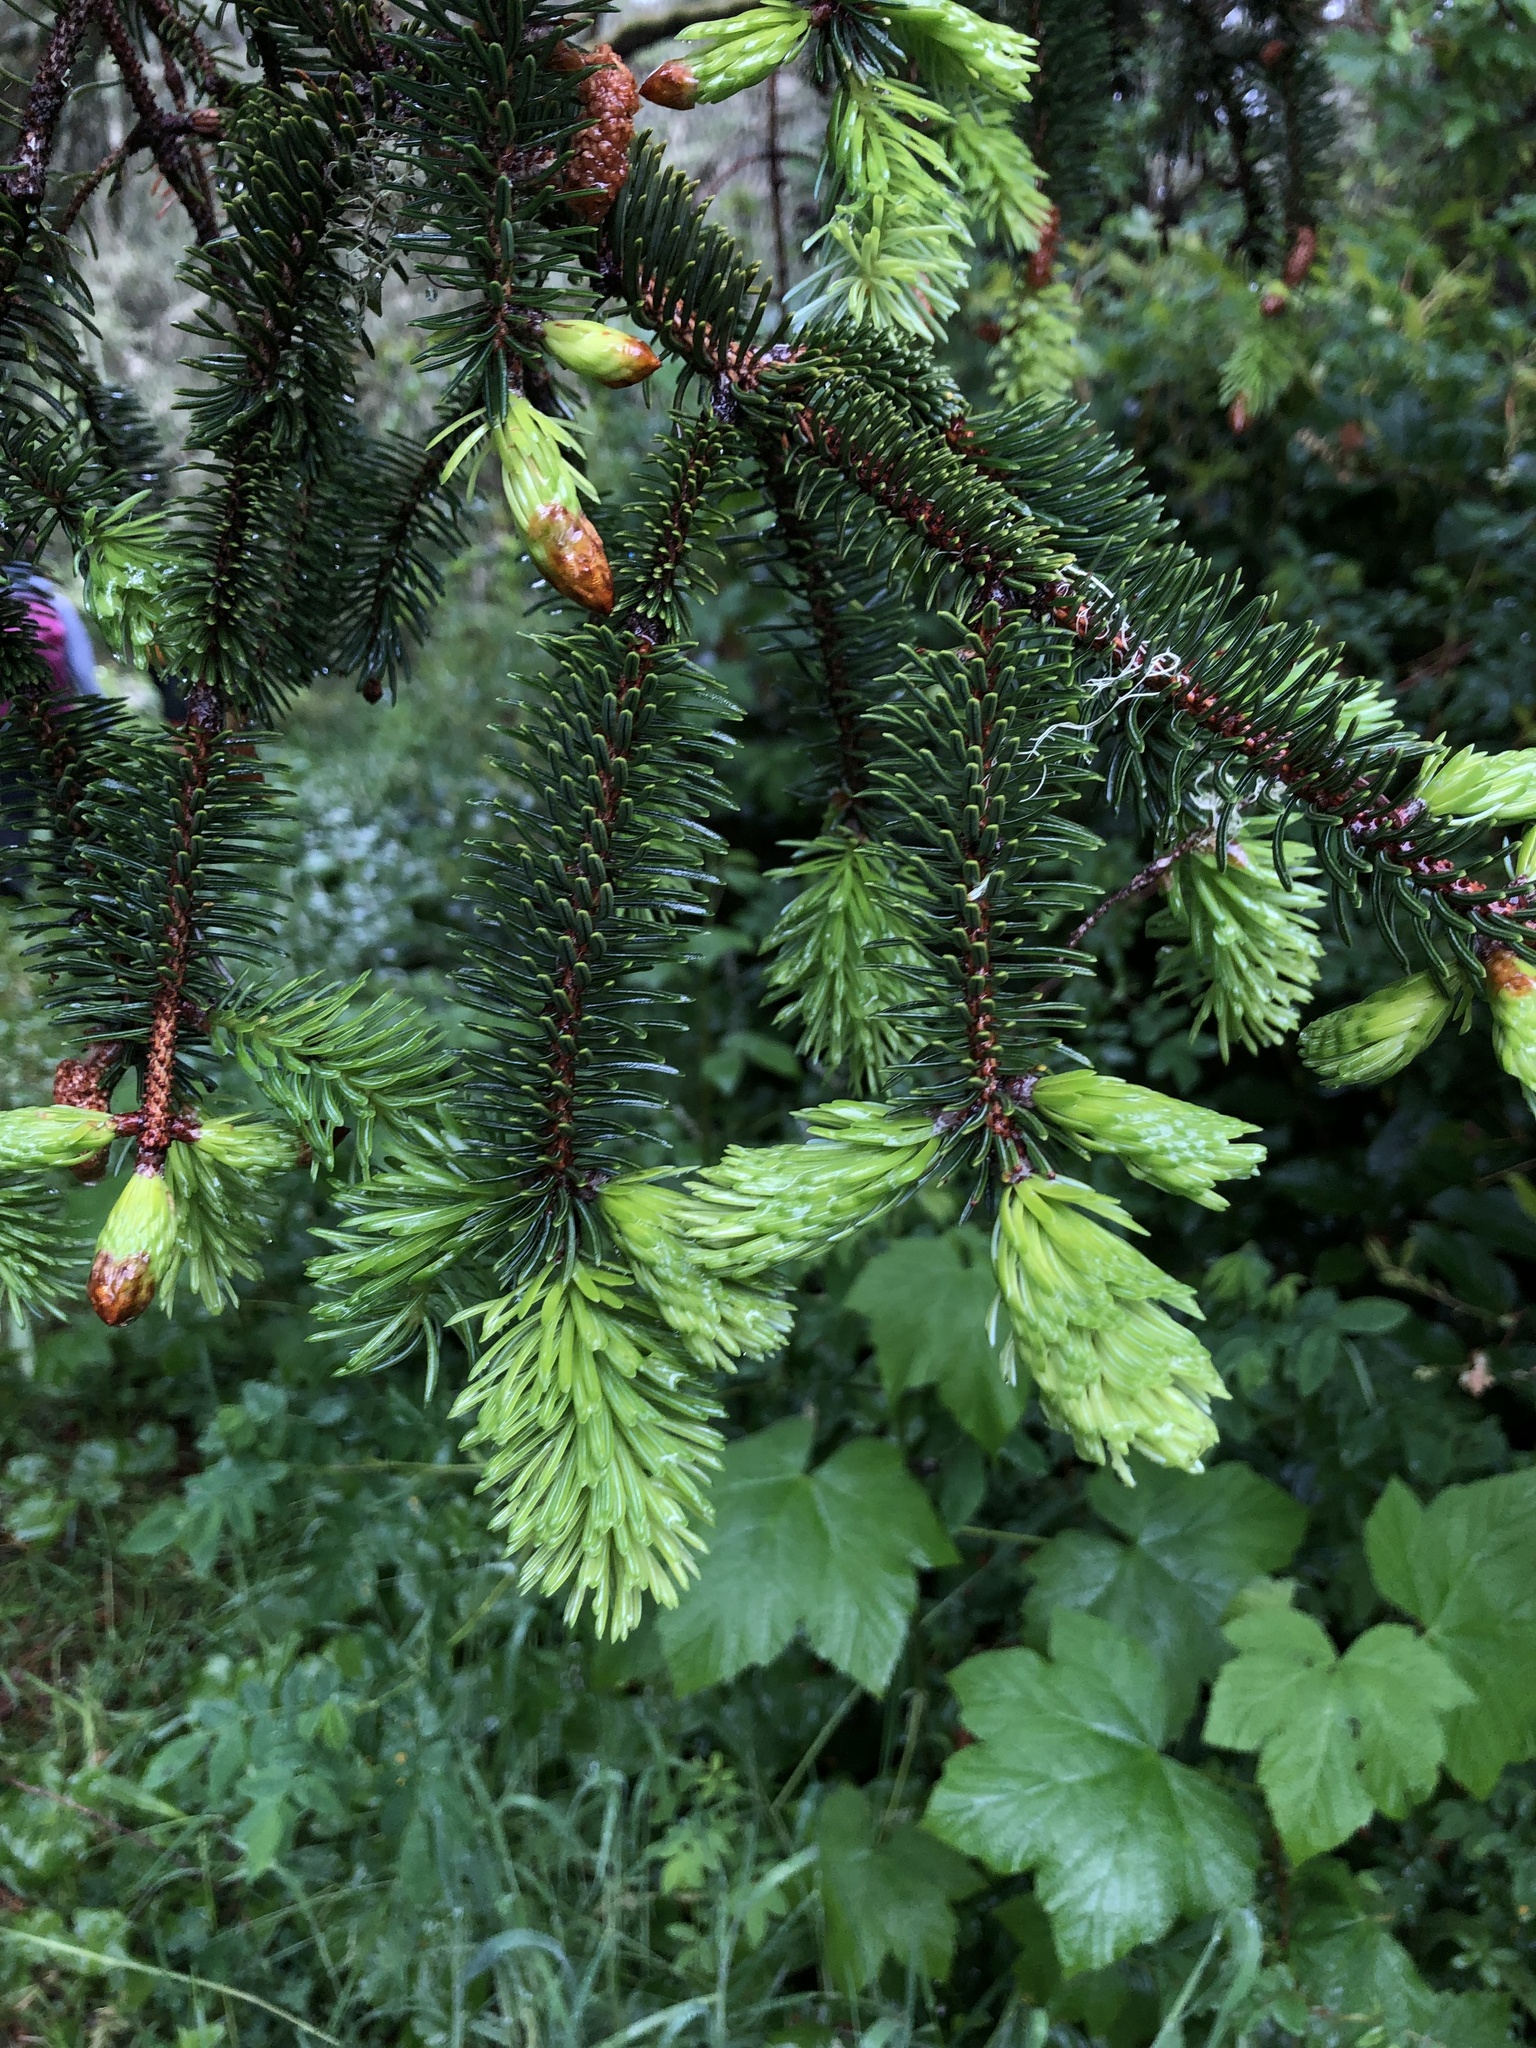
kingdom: Plantae
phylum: Tracheophyta
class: Pinopsida
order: Pinales
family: Pinaceae
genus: Picea
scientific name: Picea sitchensis
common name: Sitka spruce
